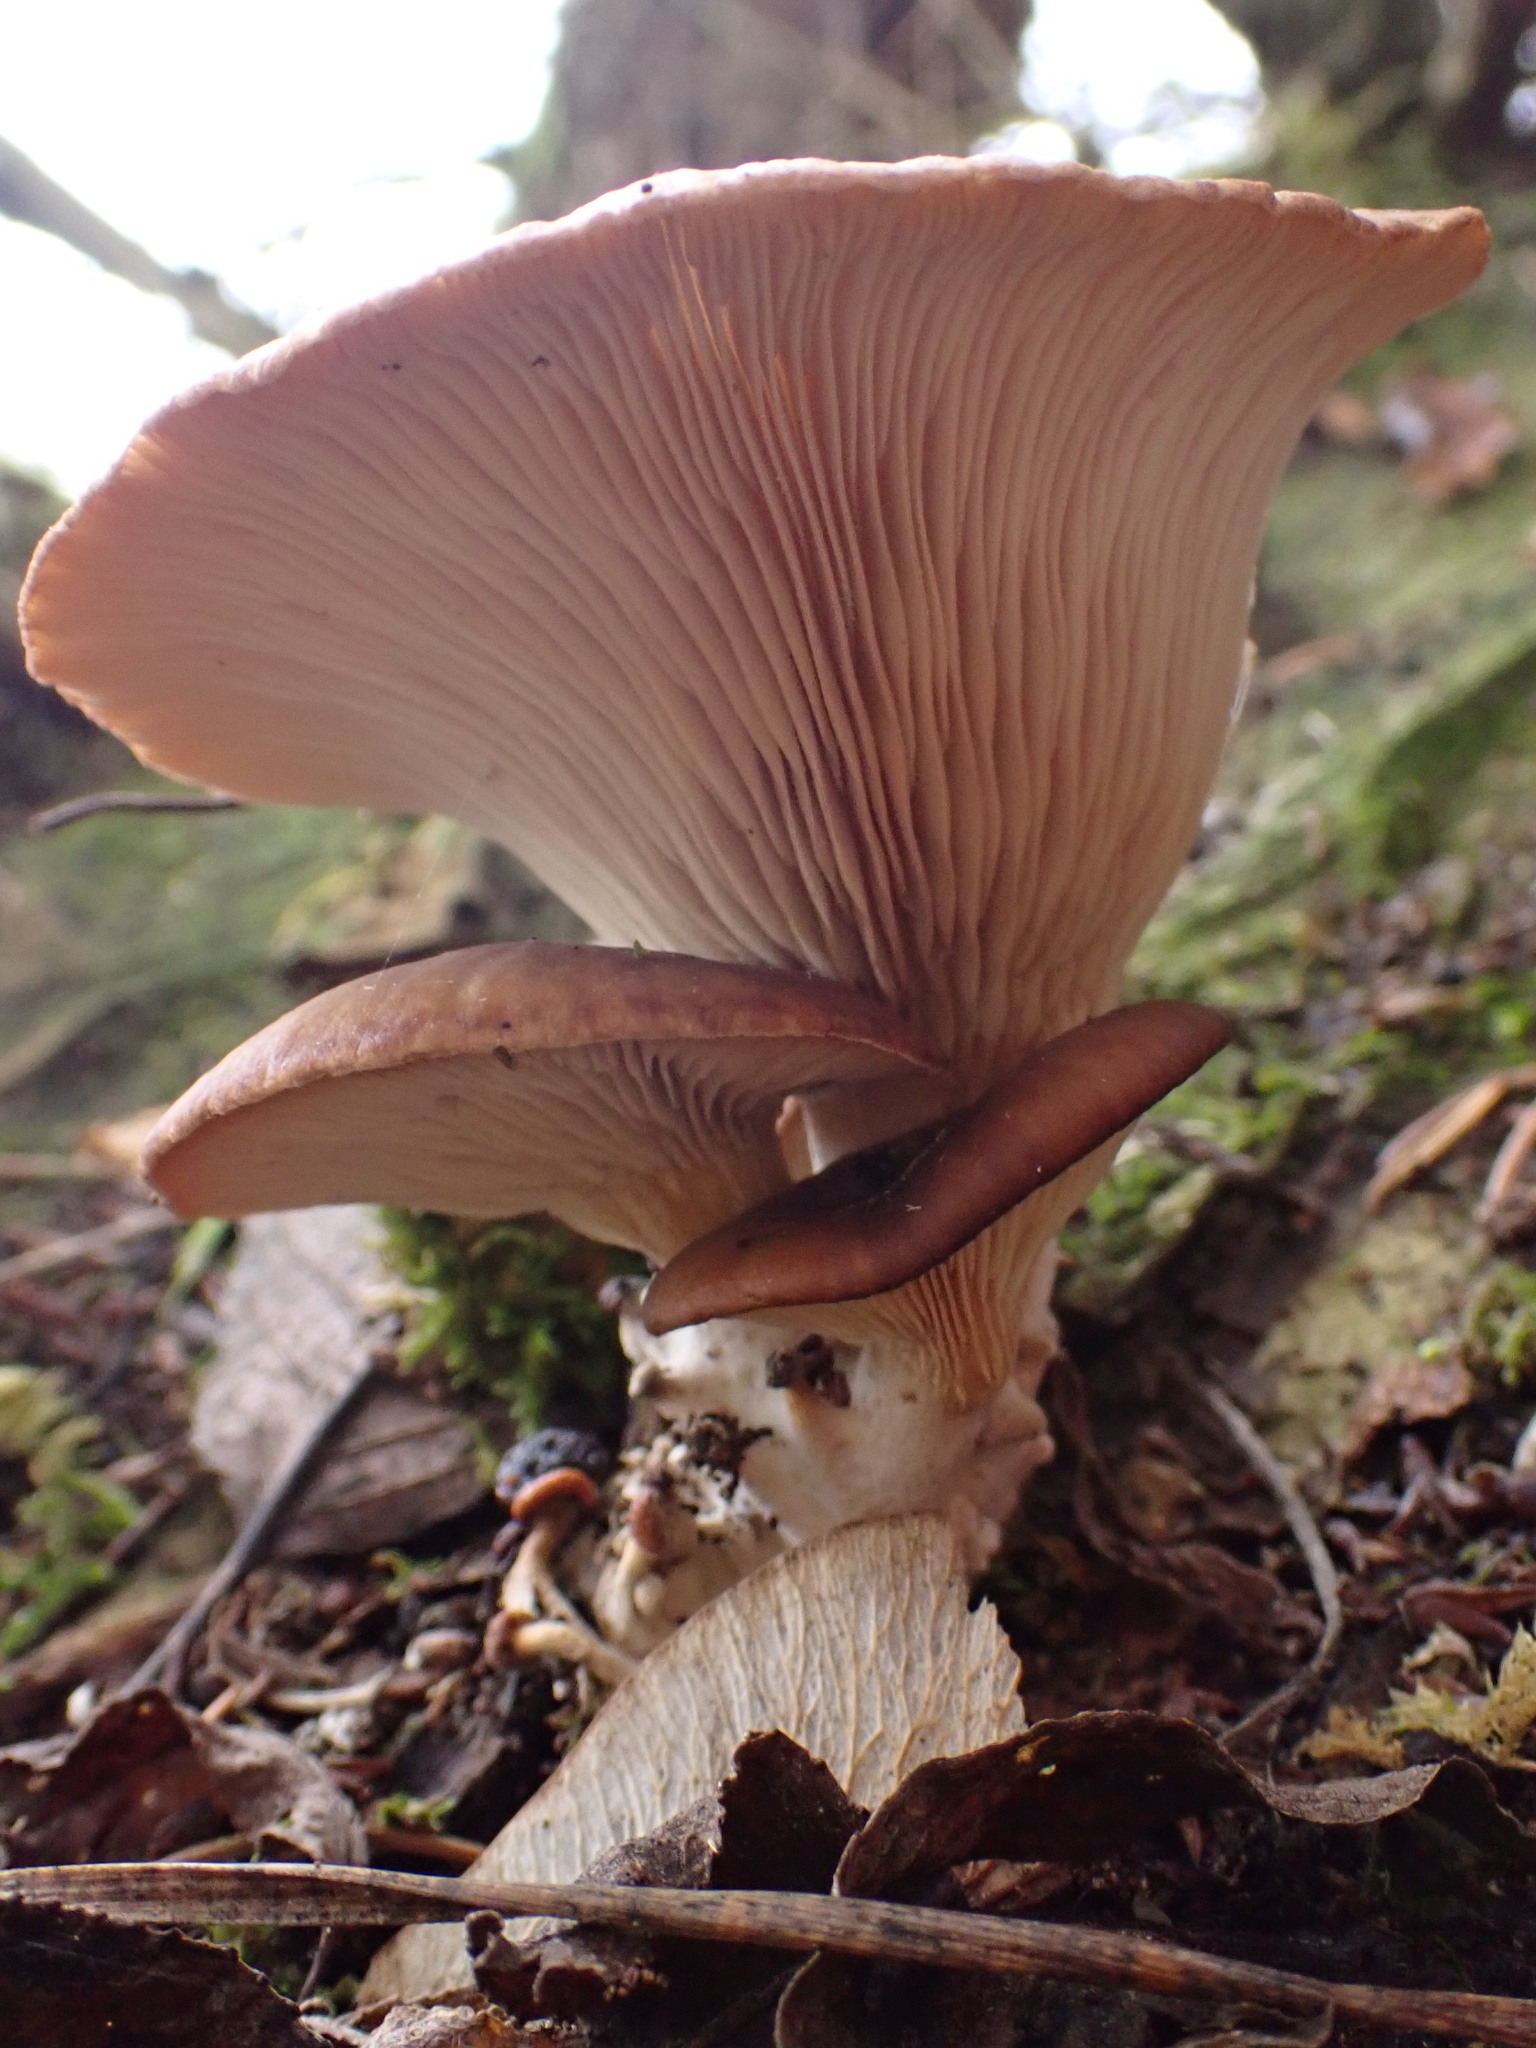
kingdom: Fungi
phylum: Basidiomycota
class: Agaricomycetes
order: Agaricales
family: Pleurotaceae
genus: Pleurotus
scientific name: Pleurotus ostreatus
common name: Oyster mushroom
